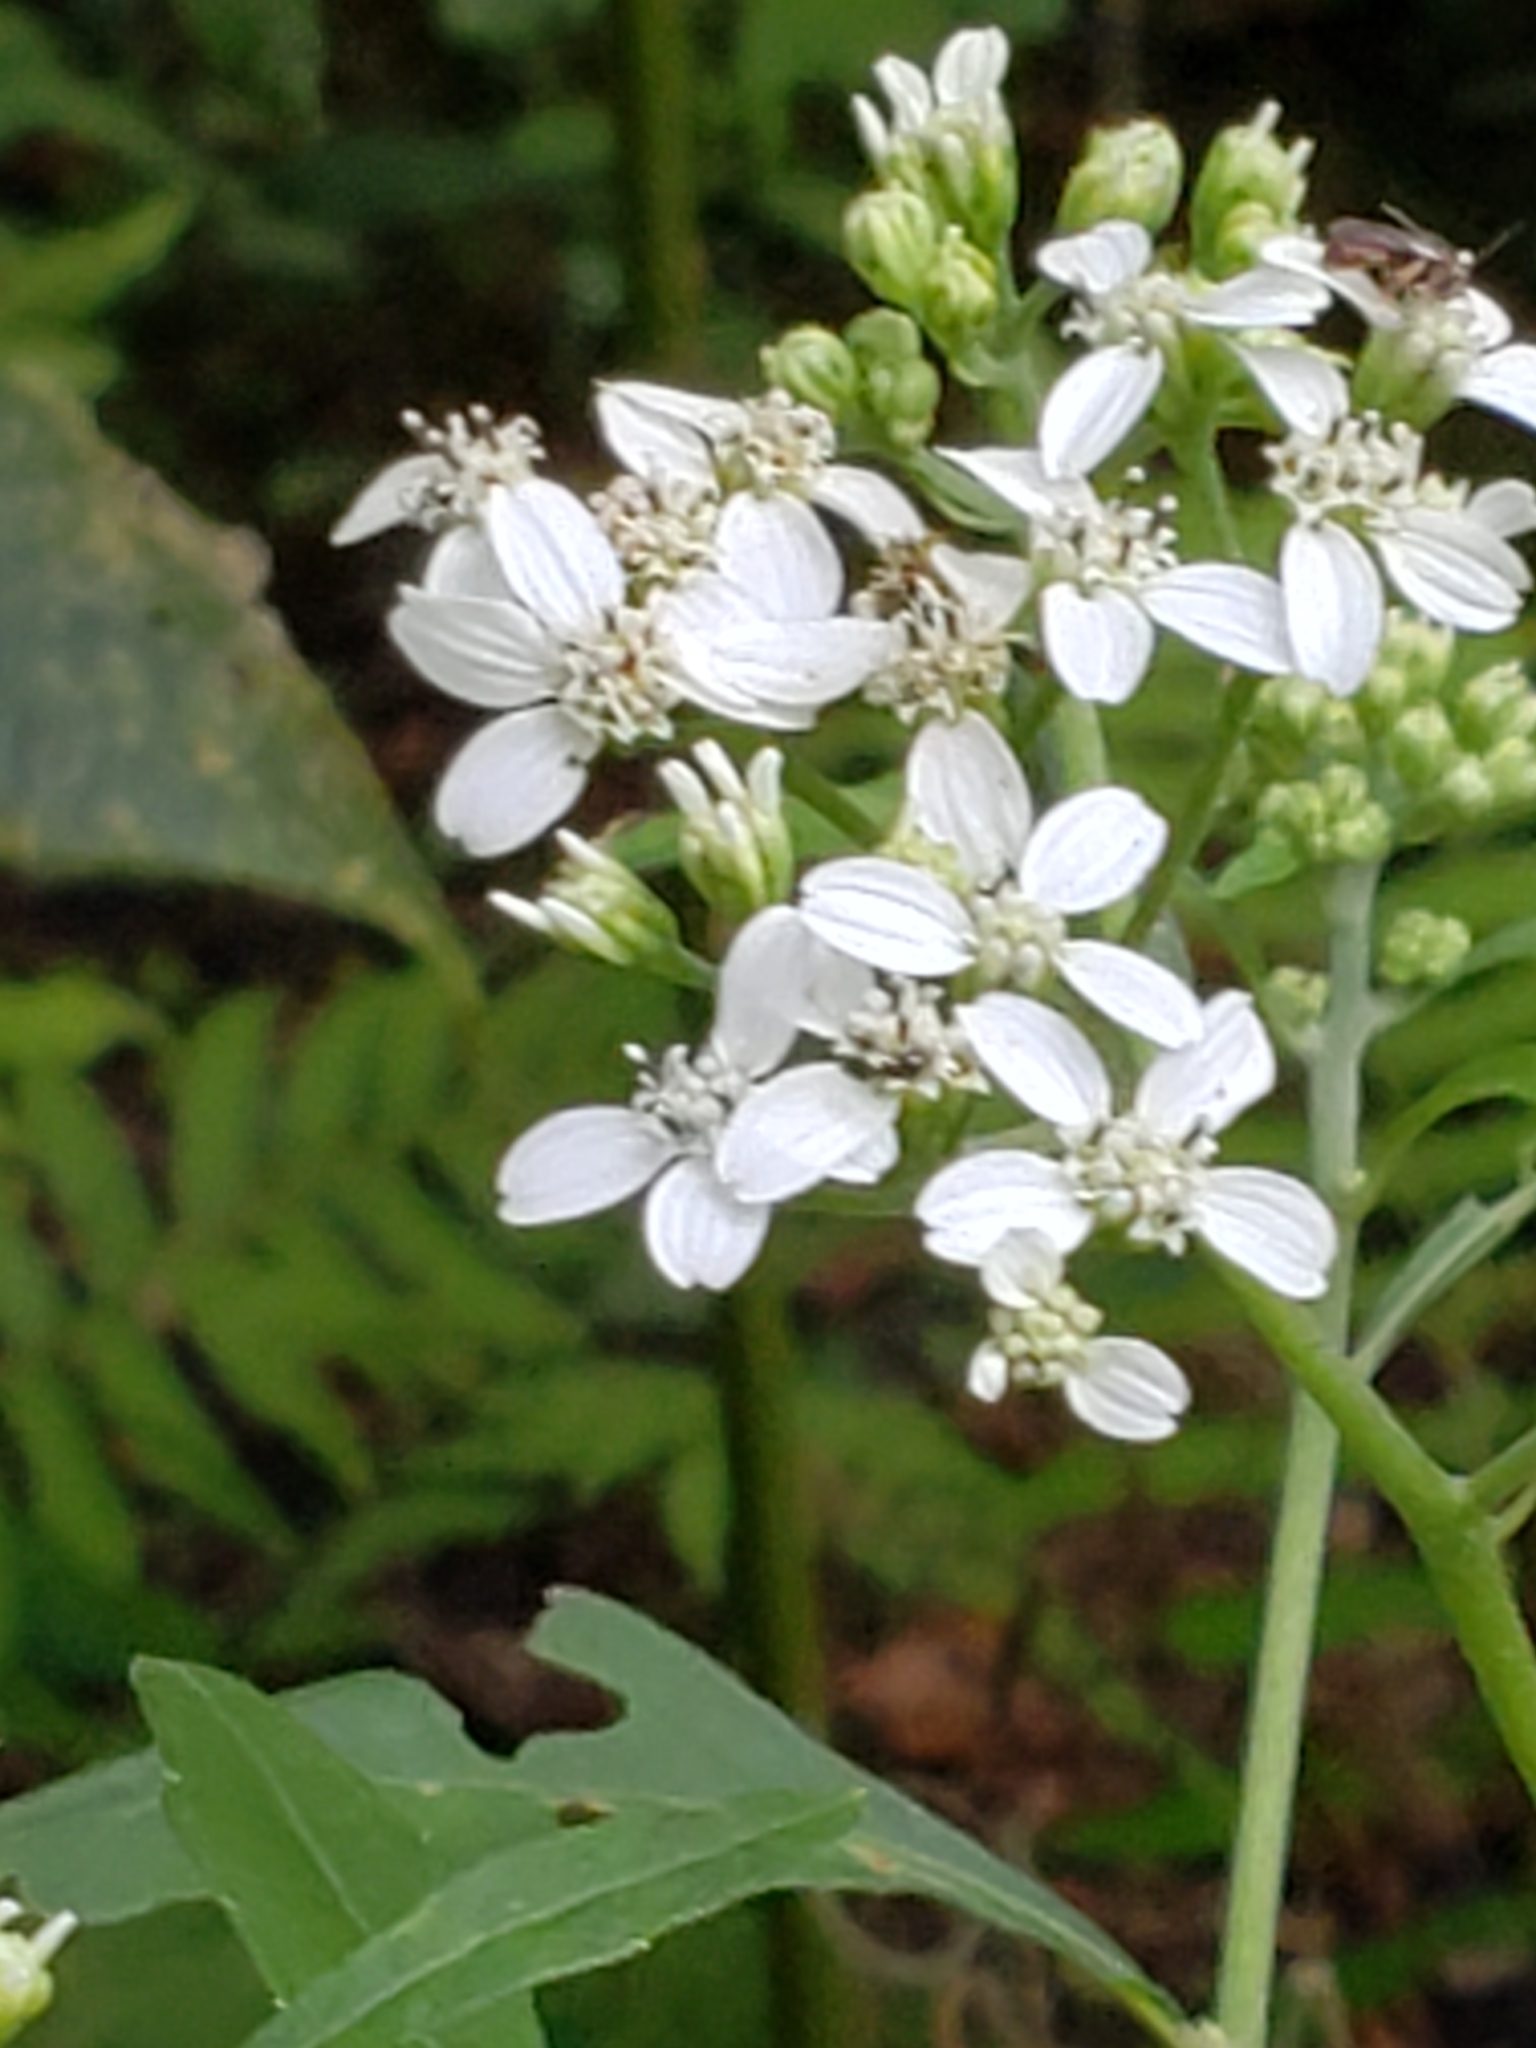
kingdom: Plantae
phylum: Tracheophyta
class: Magnoliopsida
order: Asterales
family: Asteraceae
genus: Verbesina
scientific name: Verbesina virginica
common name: Frostweed
